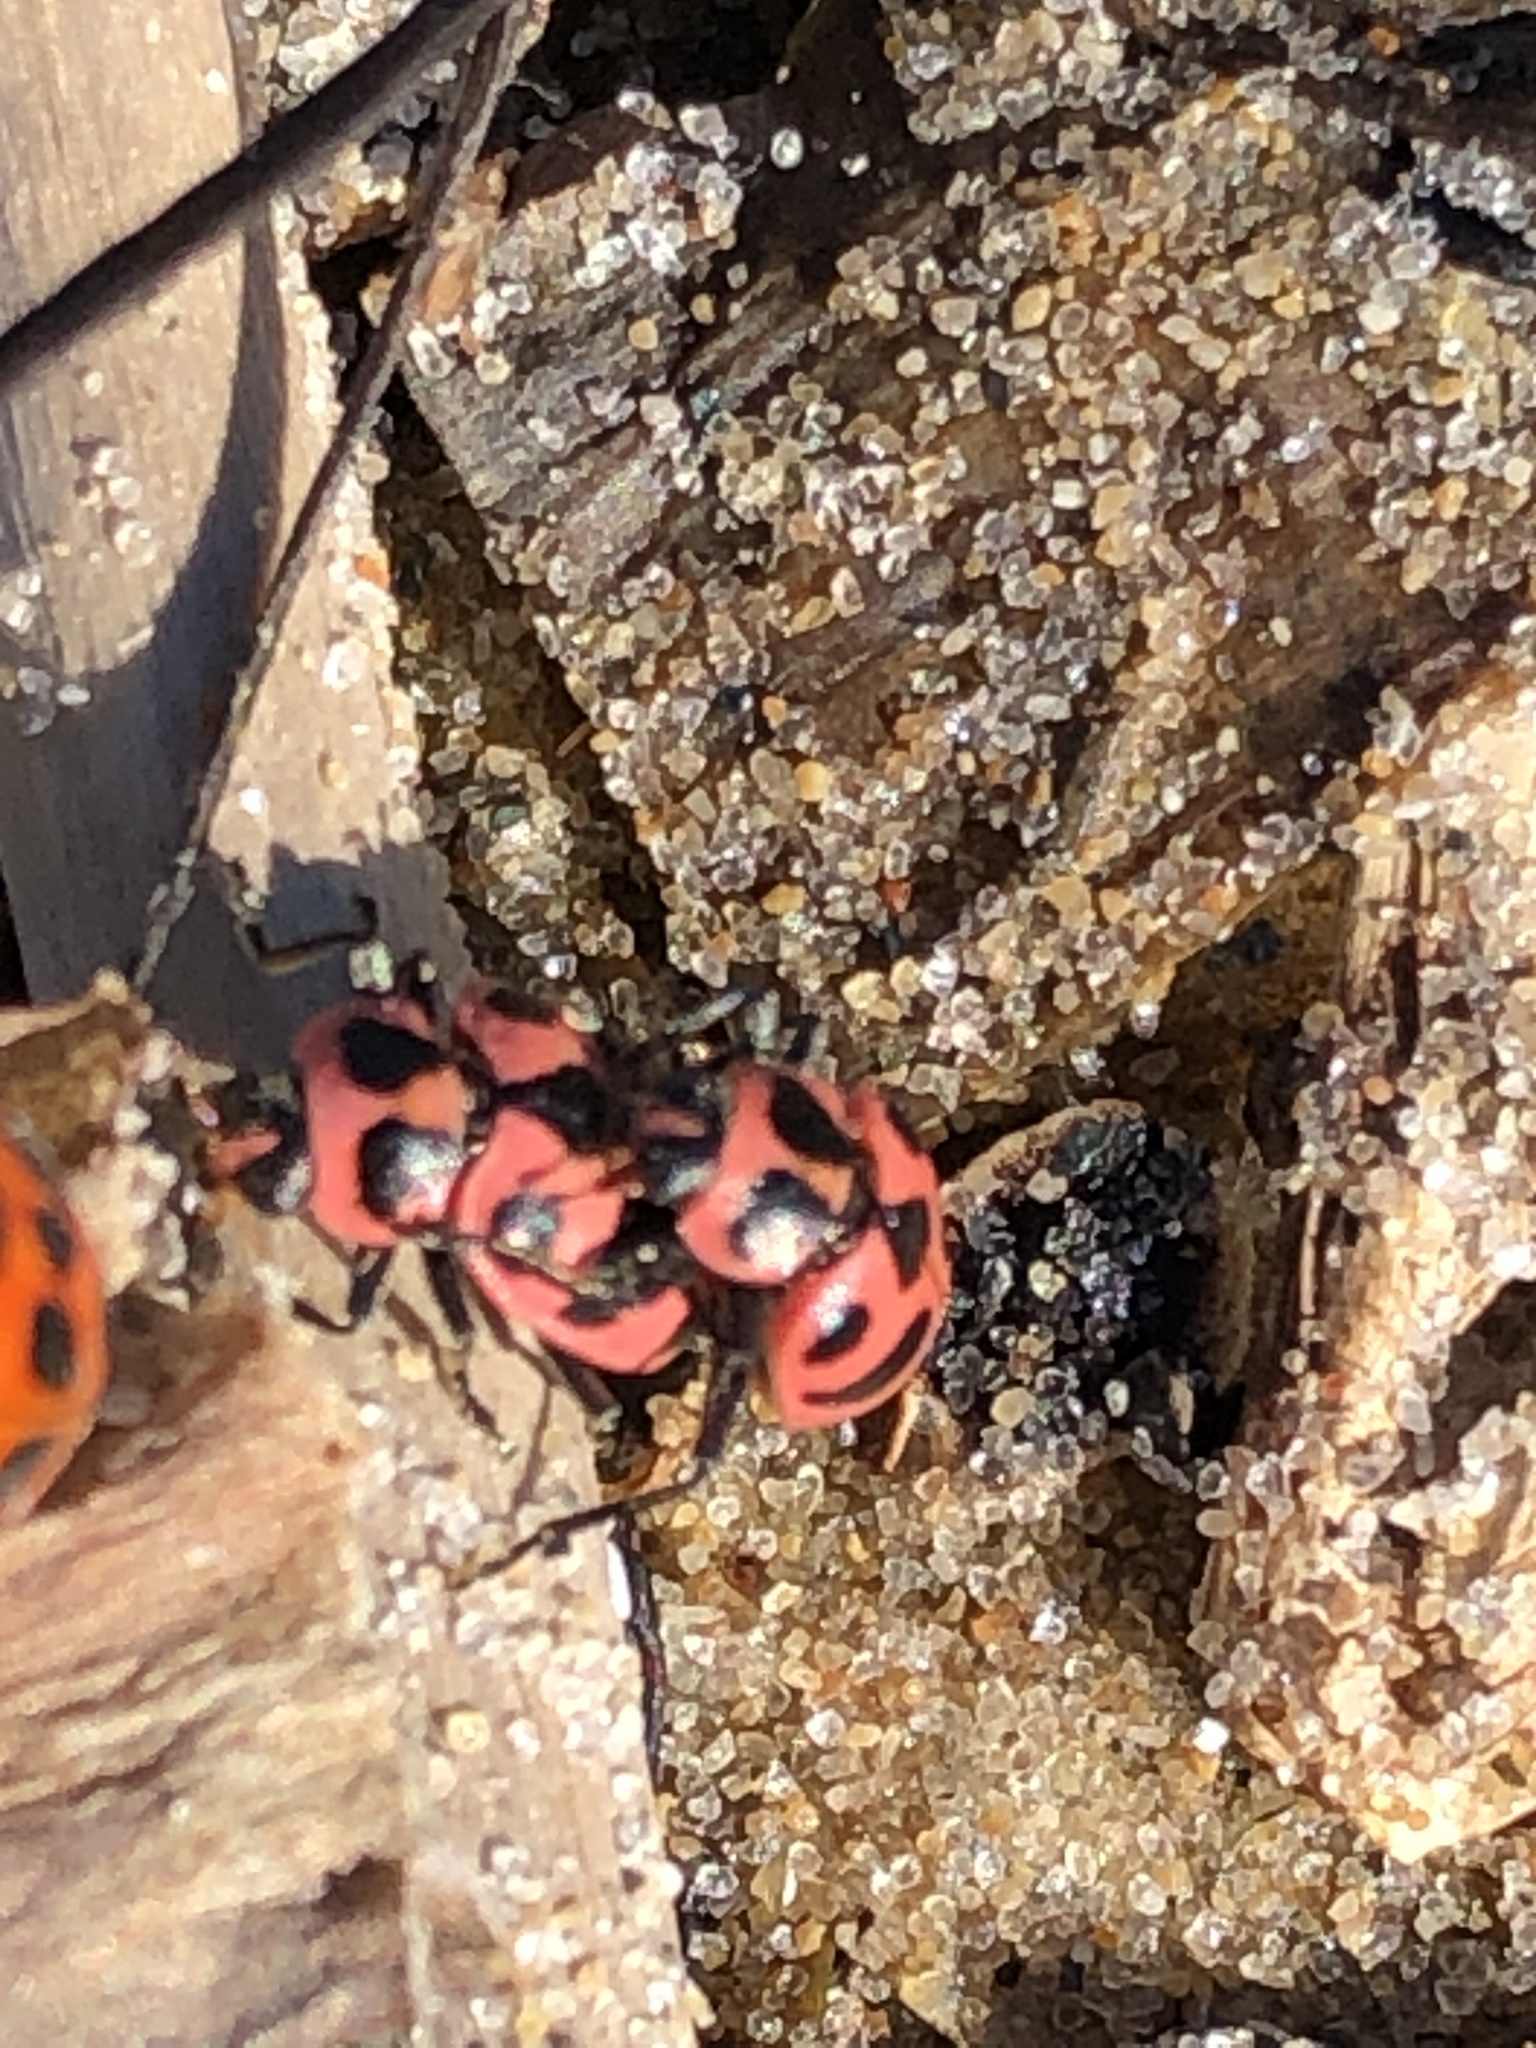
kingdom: Animalia
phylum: Arthropoda
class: Insecta
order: Coleoptera
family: Coccinellidae
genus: Coleomegilla
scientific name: Coleomegilla maculata
